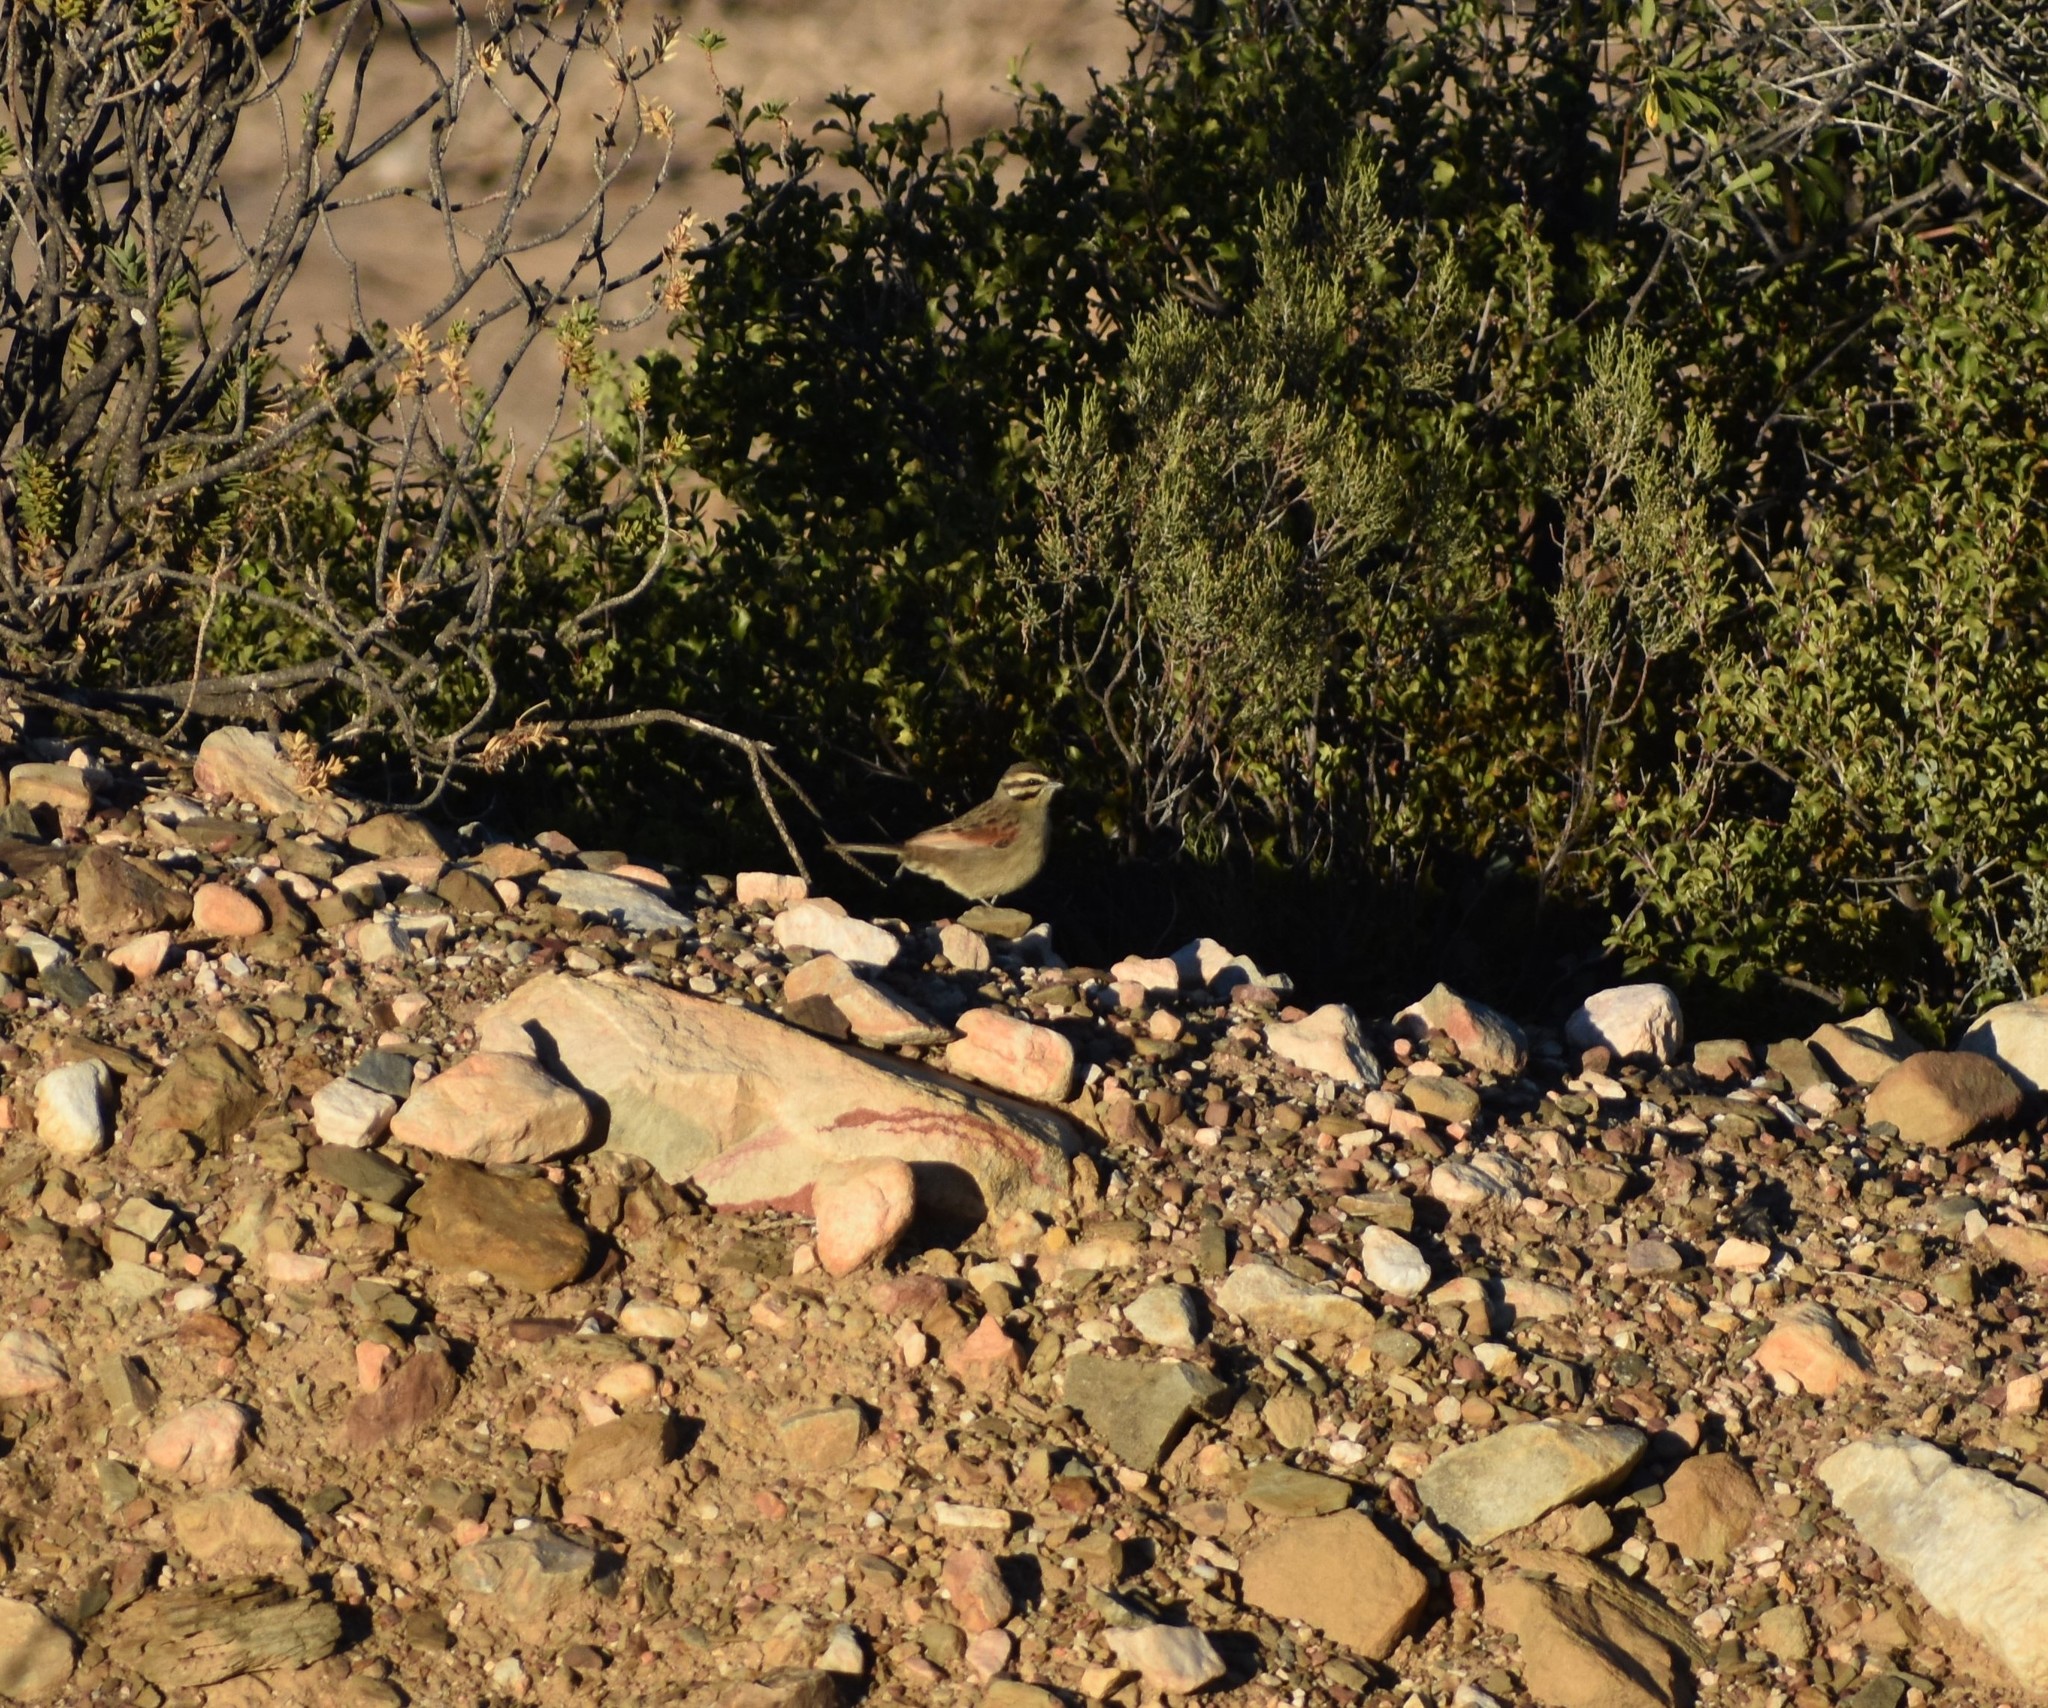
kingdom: Animalia
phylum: Chordata
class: Aves
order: Passeriformes
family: Emberizidae
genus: Emberiza
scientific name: Emberiza capensis
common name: Cape bunting
